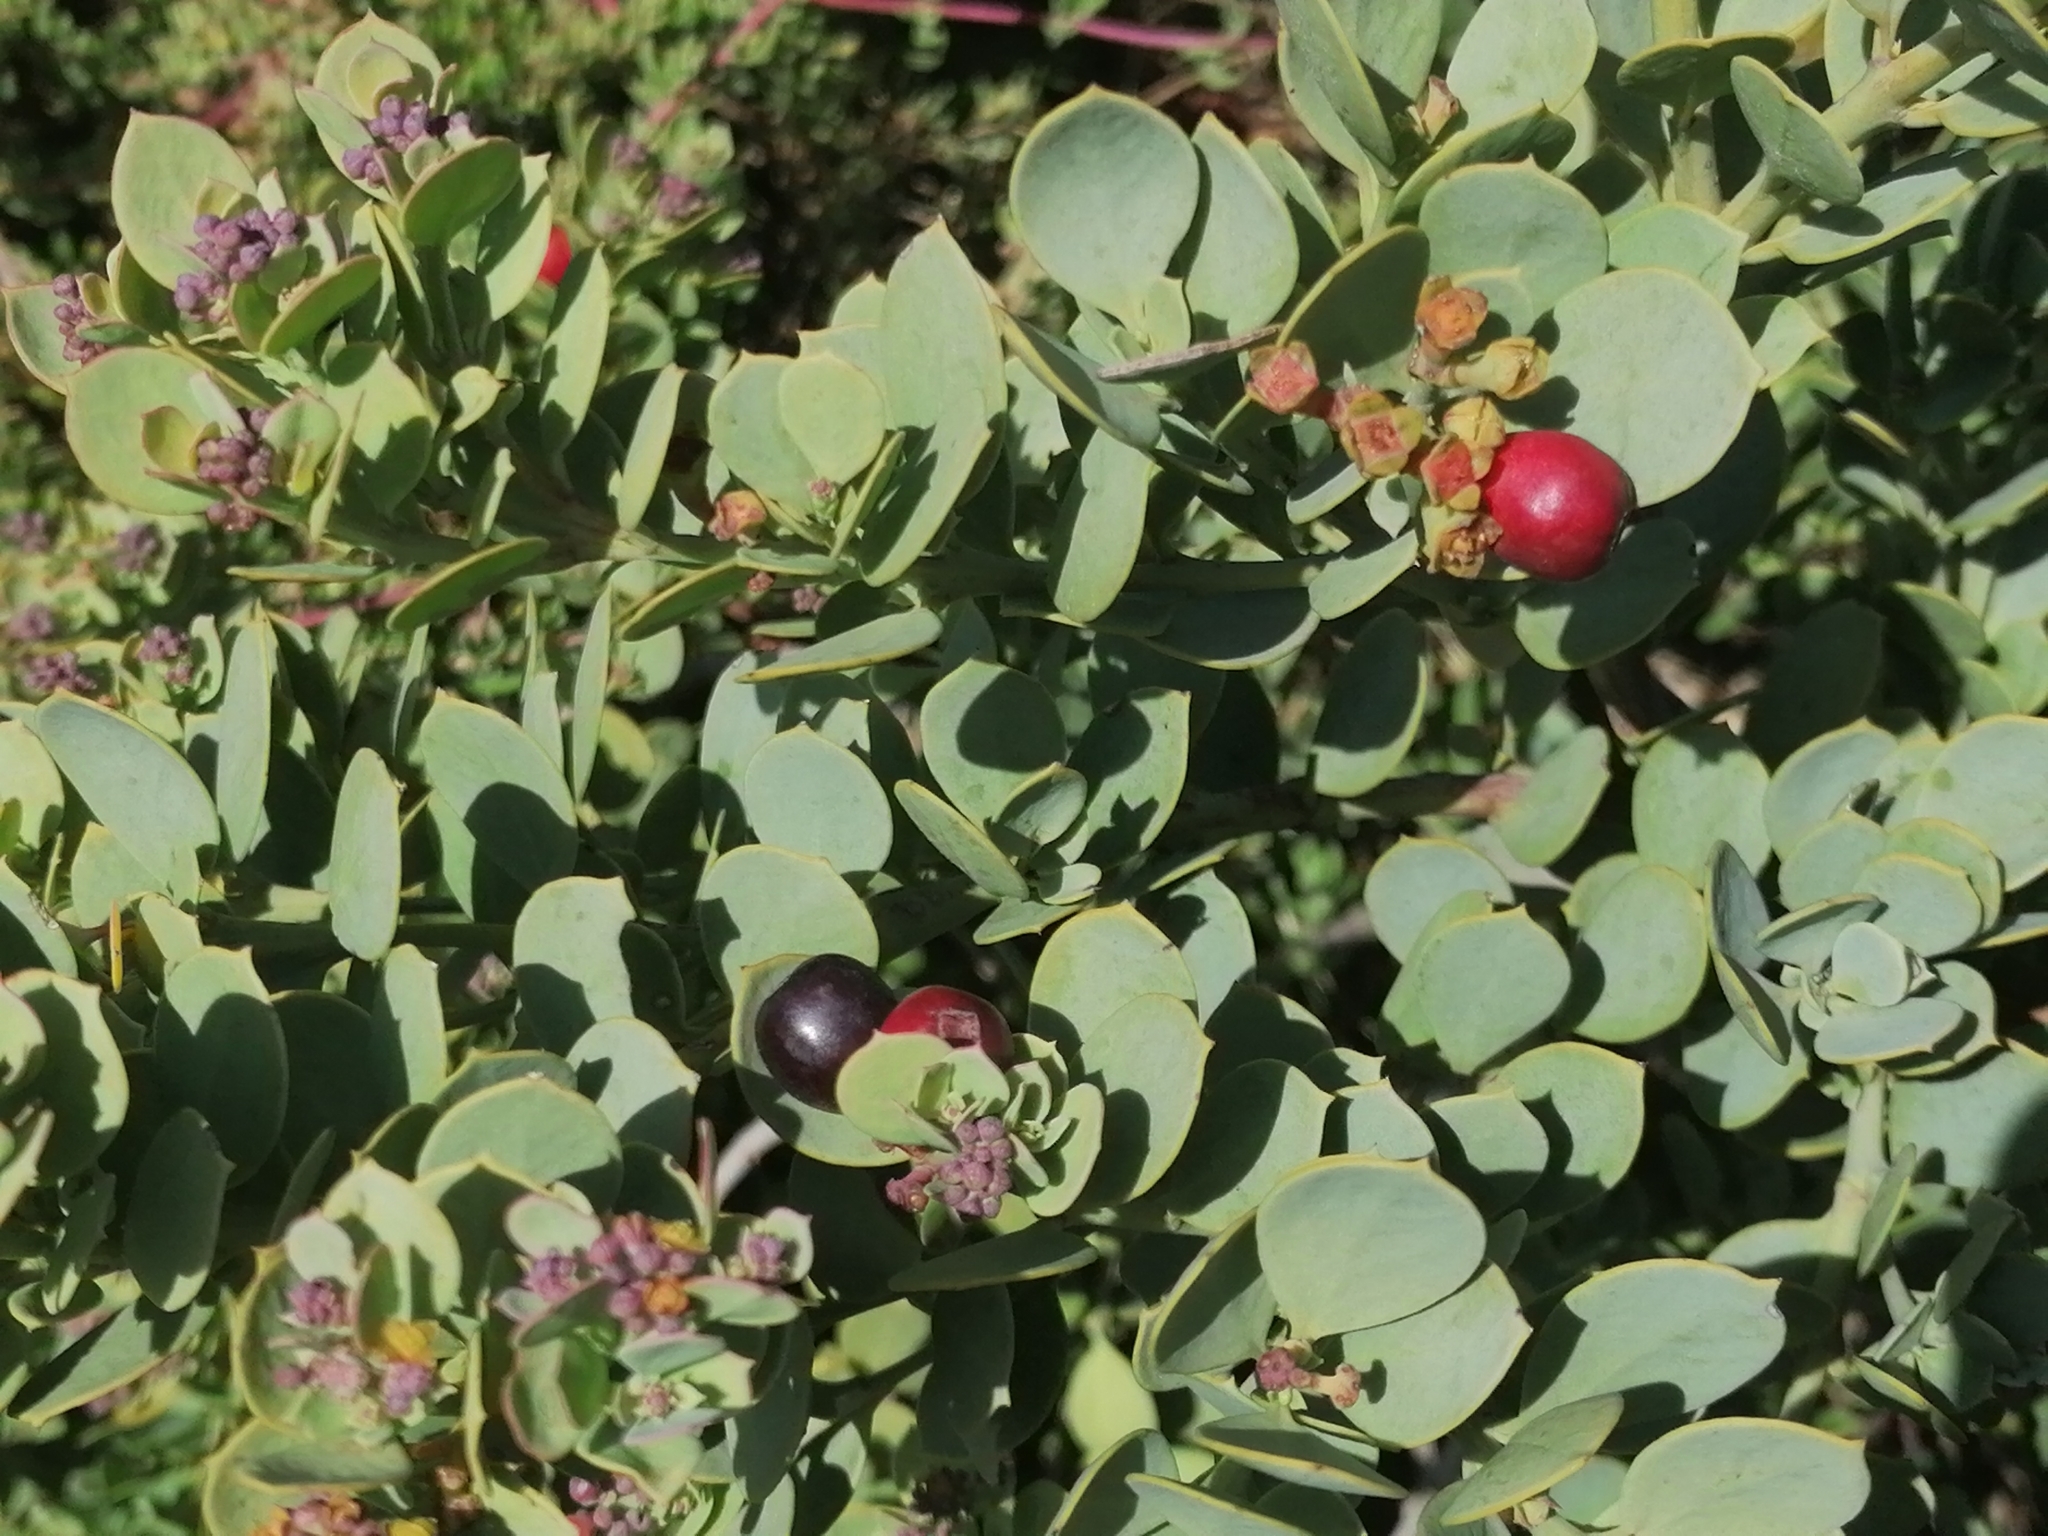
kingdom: Plantae
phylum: Tracheophyta
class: Magnoliopsida
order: Santalales
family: Santalaceae
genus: Osyris
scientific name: Osyris compressa
